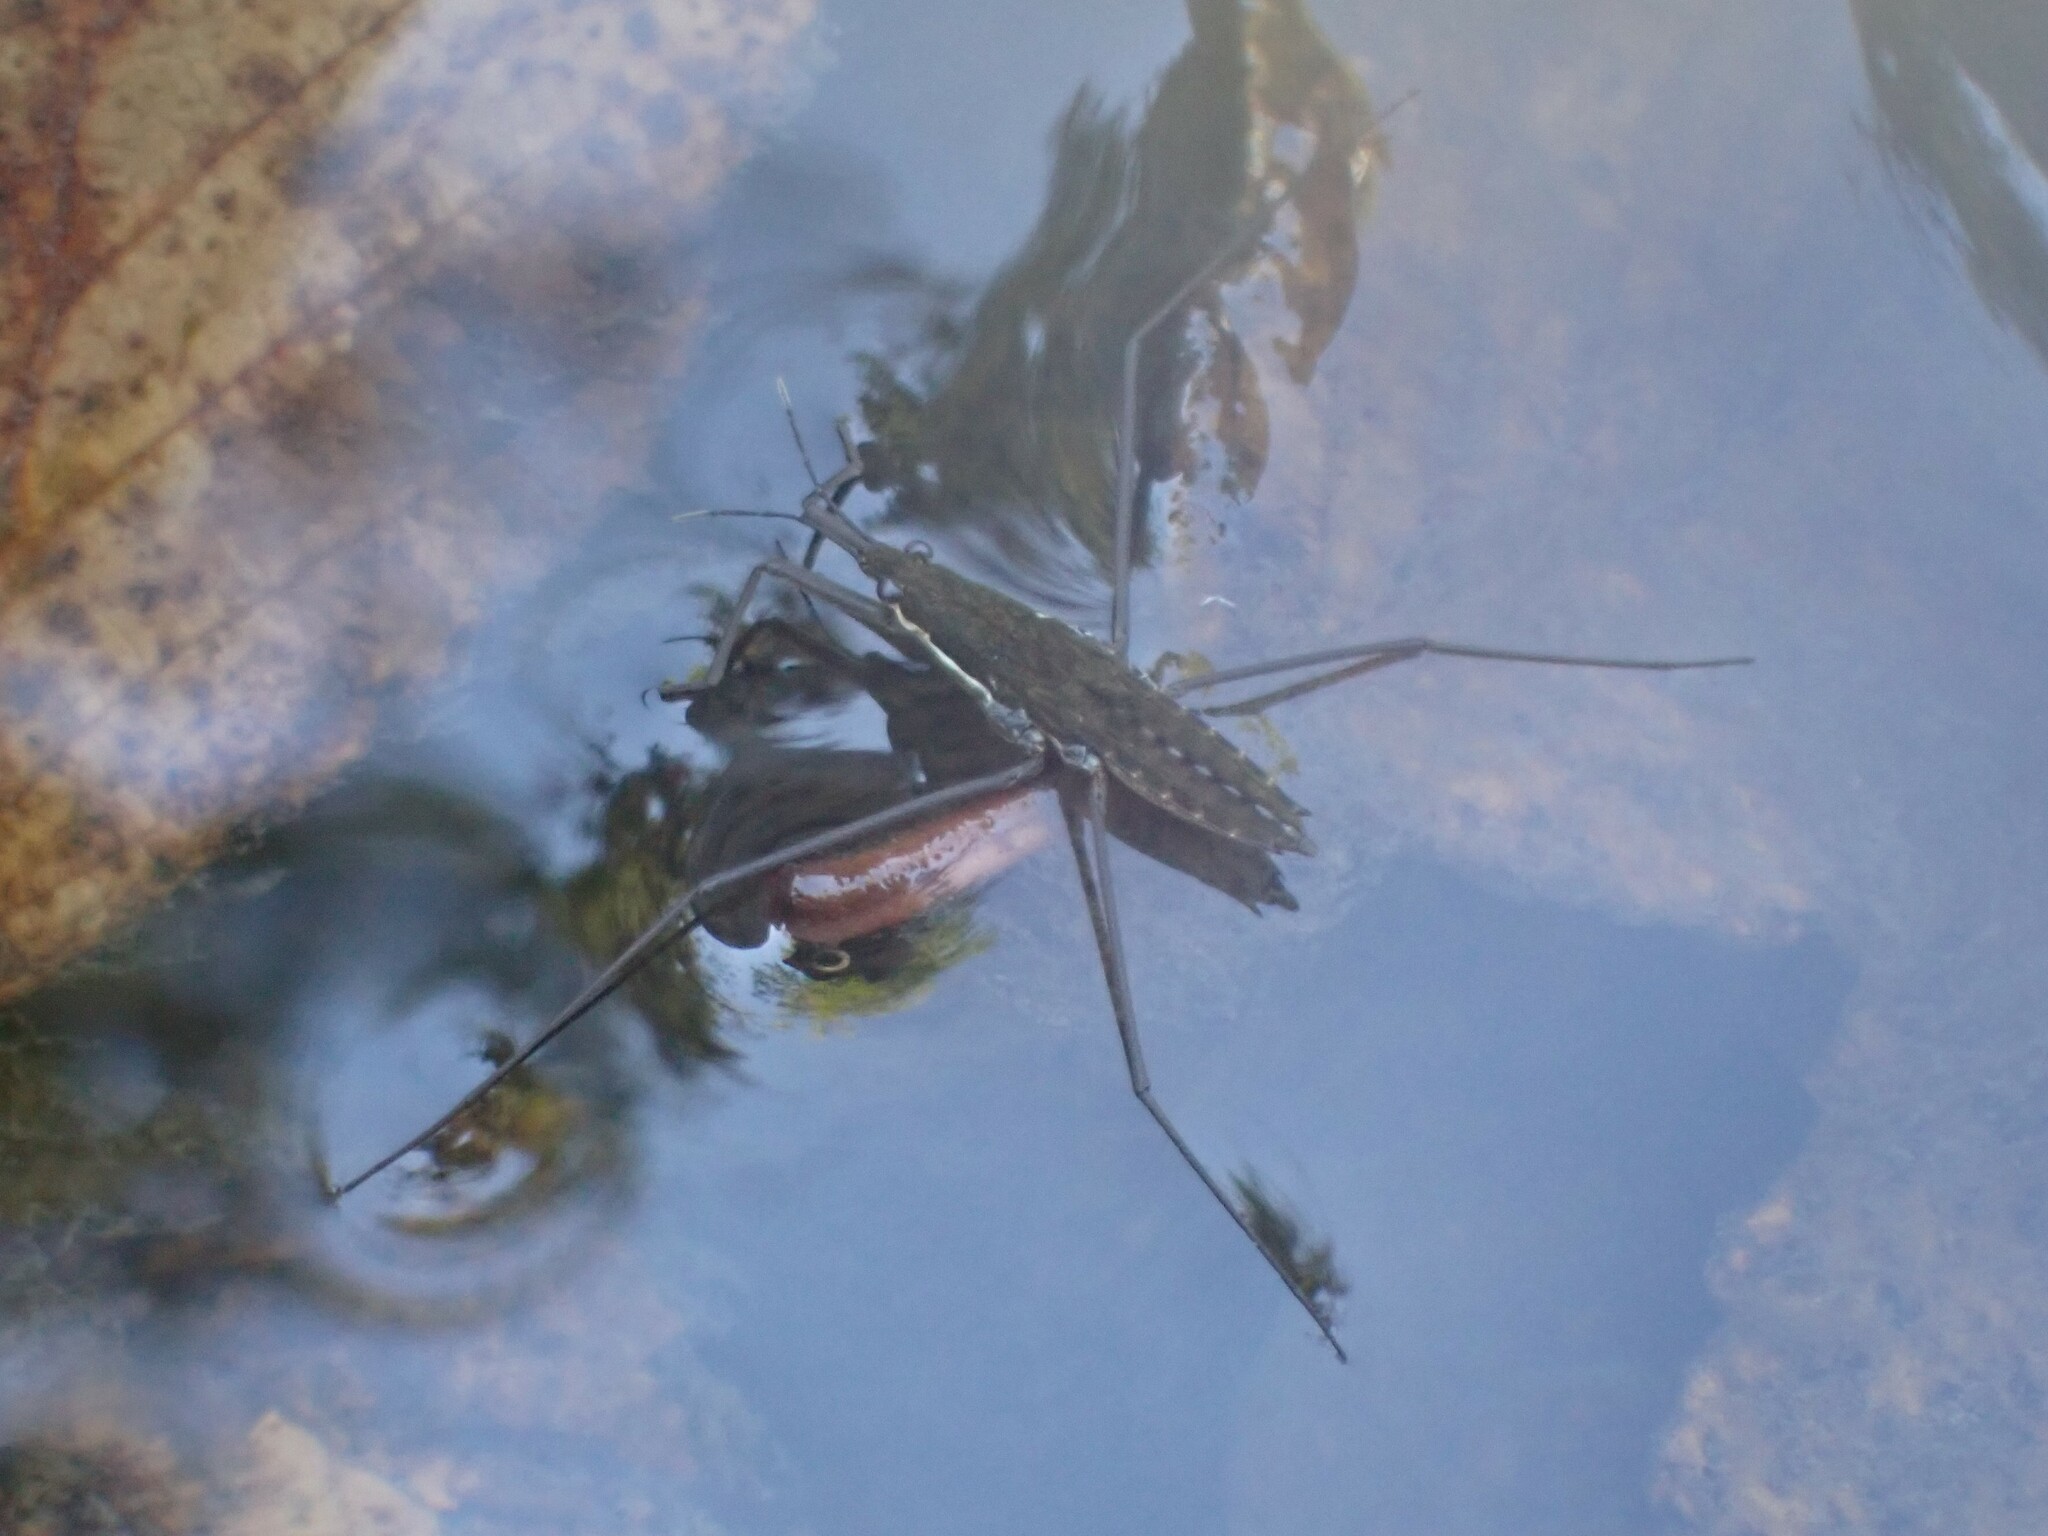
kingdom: Animalia
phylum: Arthropoda
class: Insecta
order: Hemiptera
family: Gerridae
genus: Aquarius
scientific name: Aquarius remigis
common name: Common water strider
